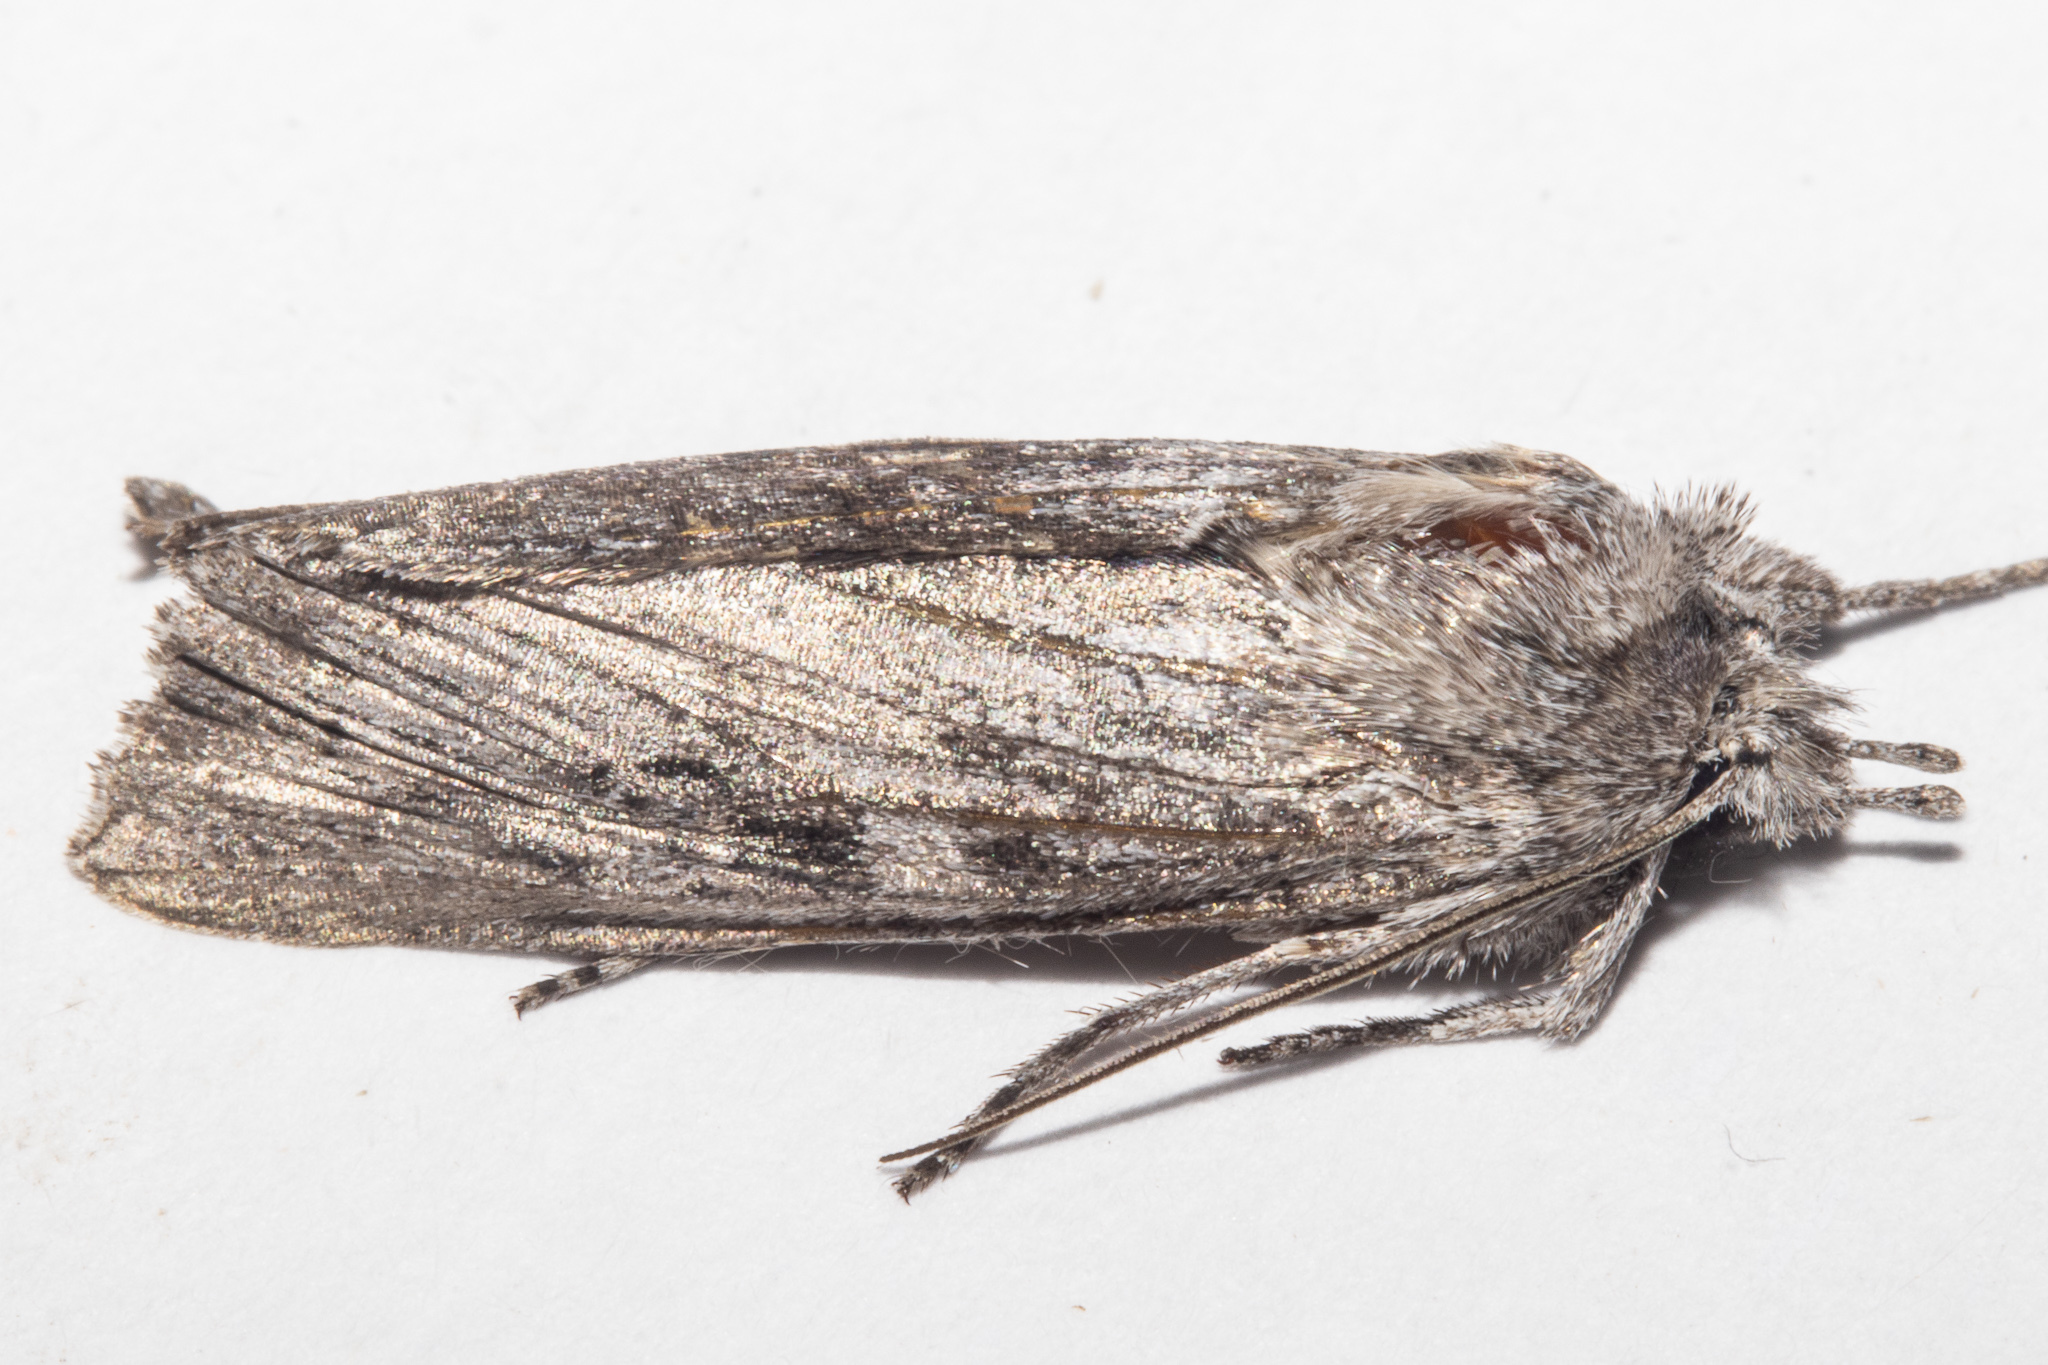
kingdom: Animalia
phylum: Arthropoda
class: Insecta
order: Lepidoptera
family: Noctuidae
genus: Physetica
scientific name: Physetica phricias
